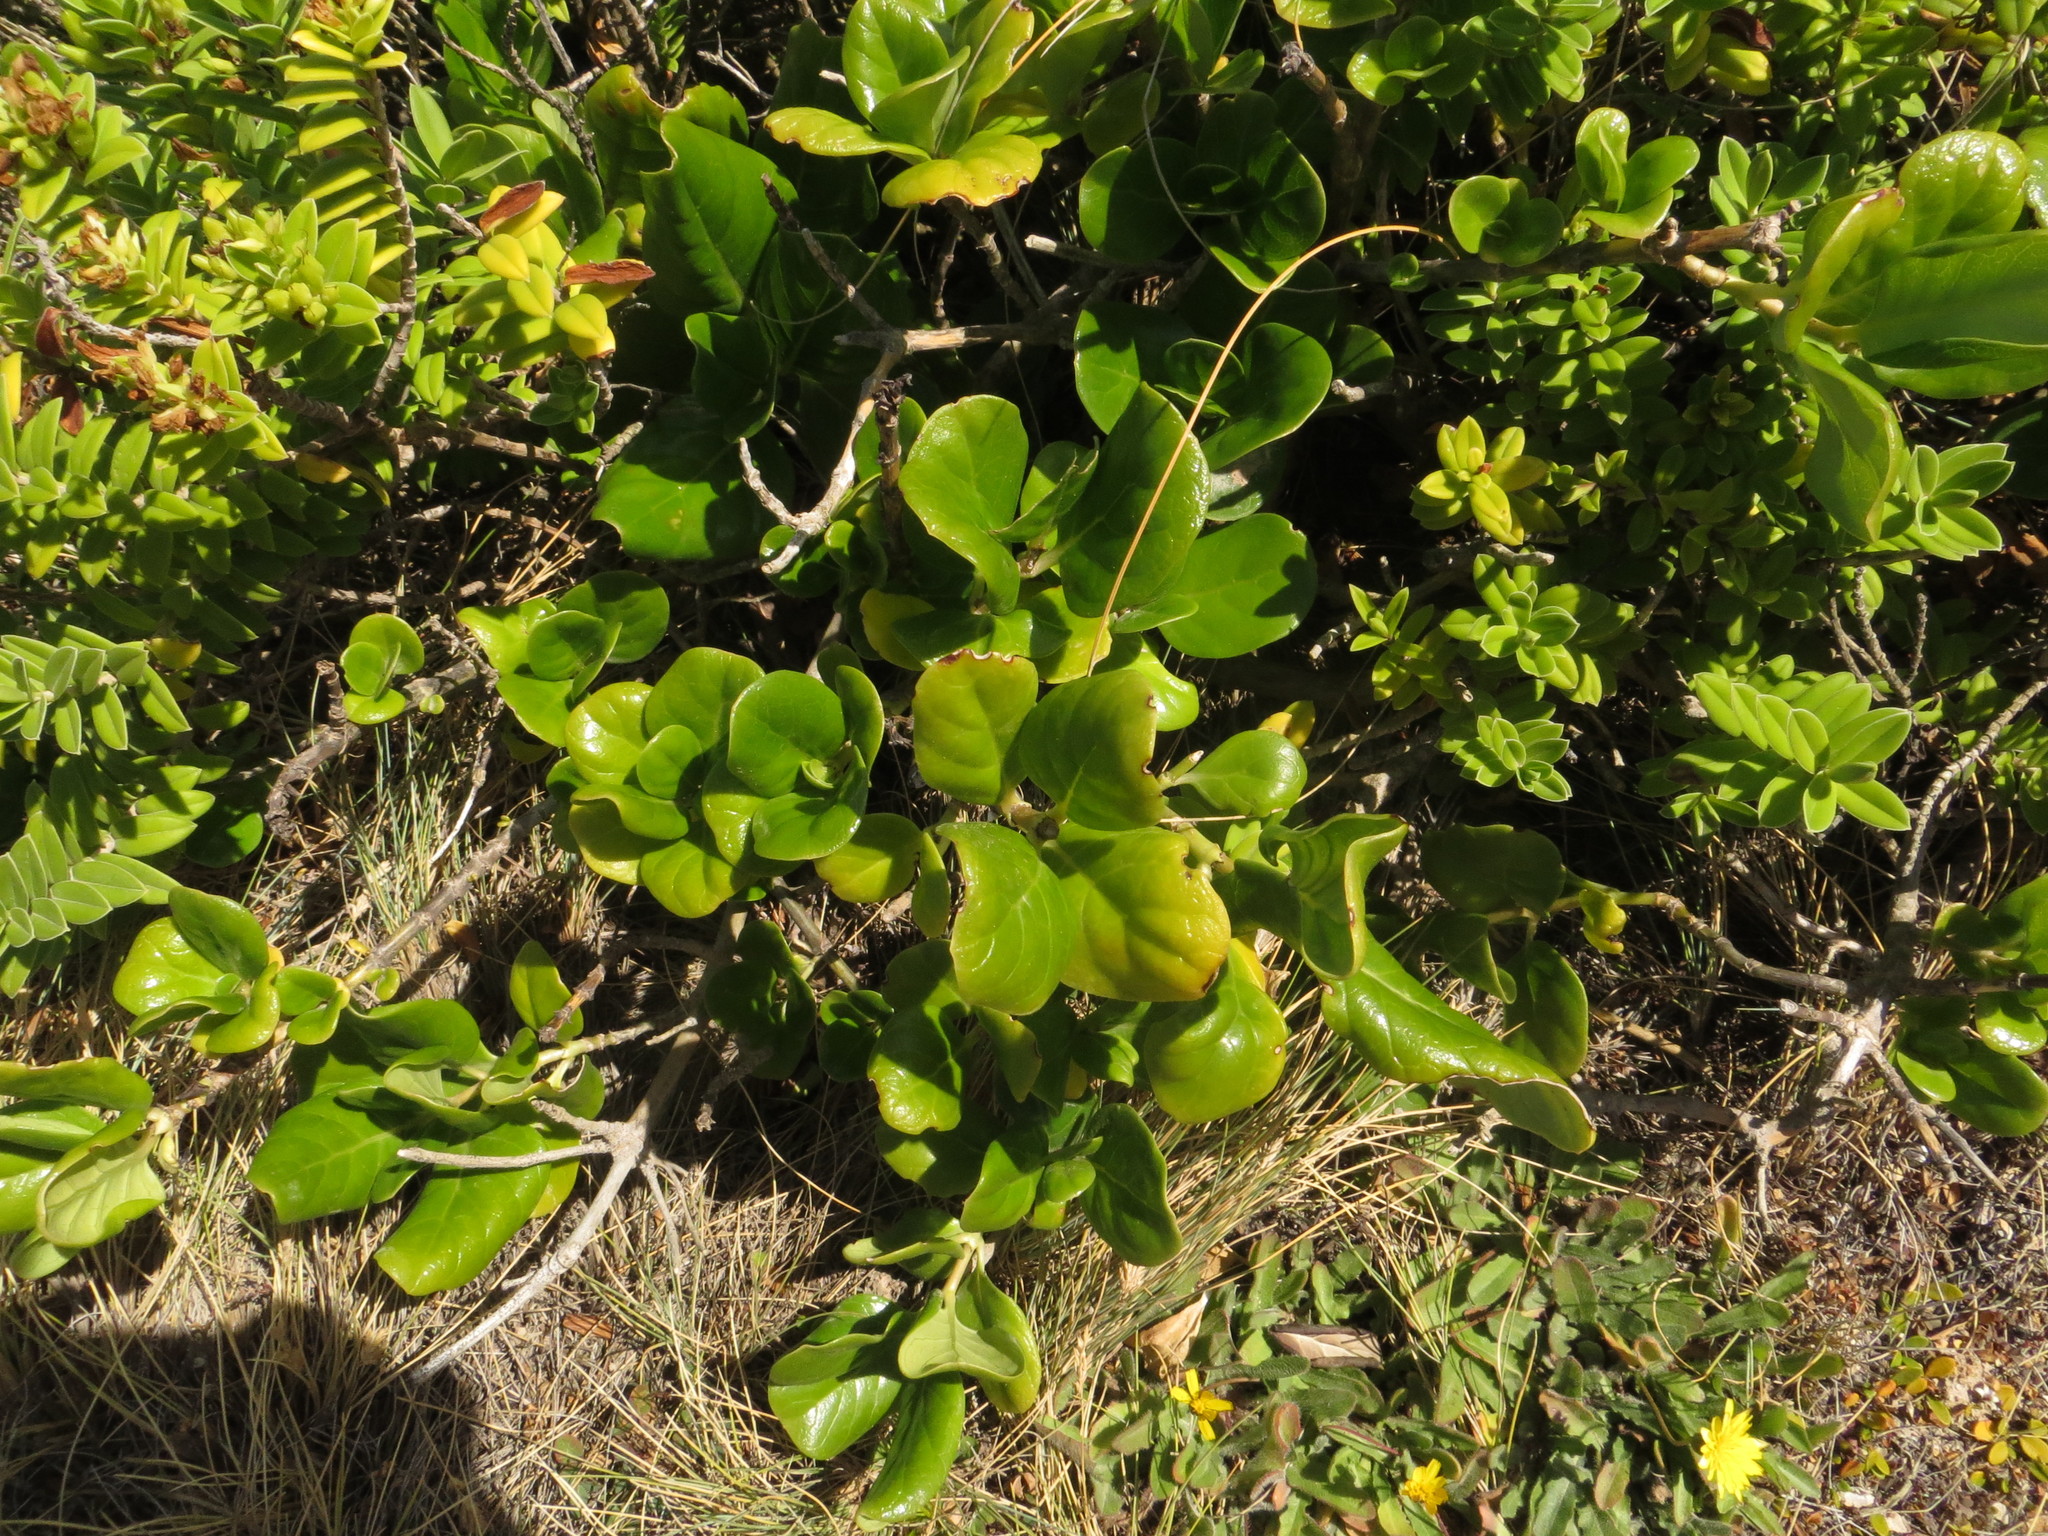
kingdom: Plantae
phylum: Tracheophyta
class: Magnoliopsida
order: Gentianales
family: Rubiaceae
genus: Coprosma
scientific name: Coprosma repens
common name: Tree bedstraw
